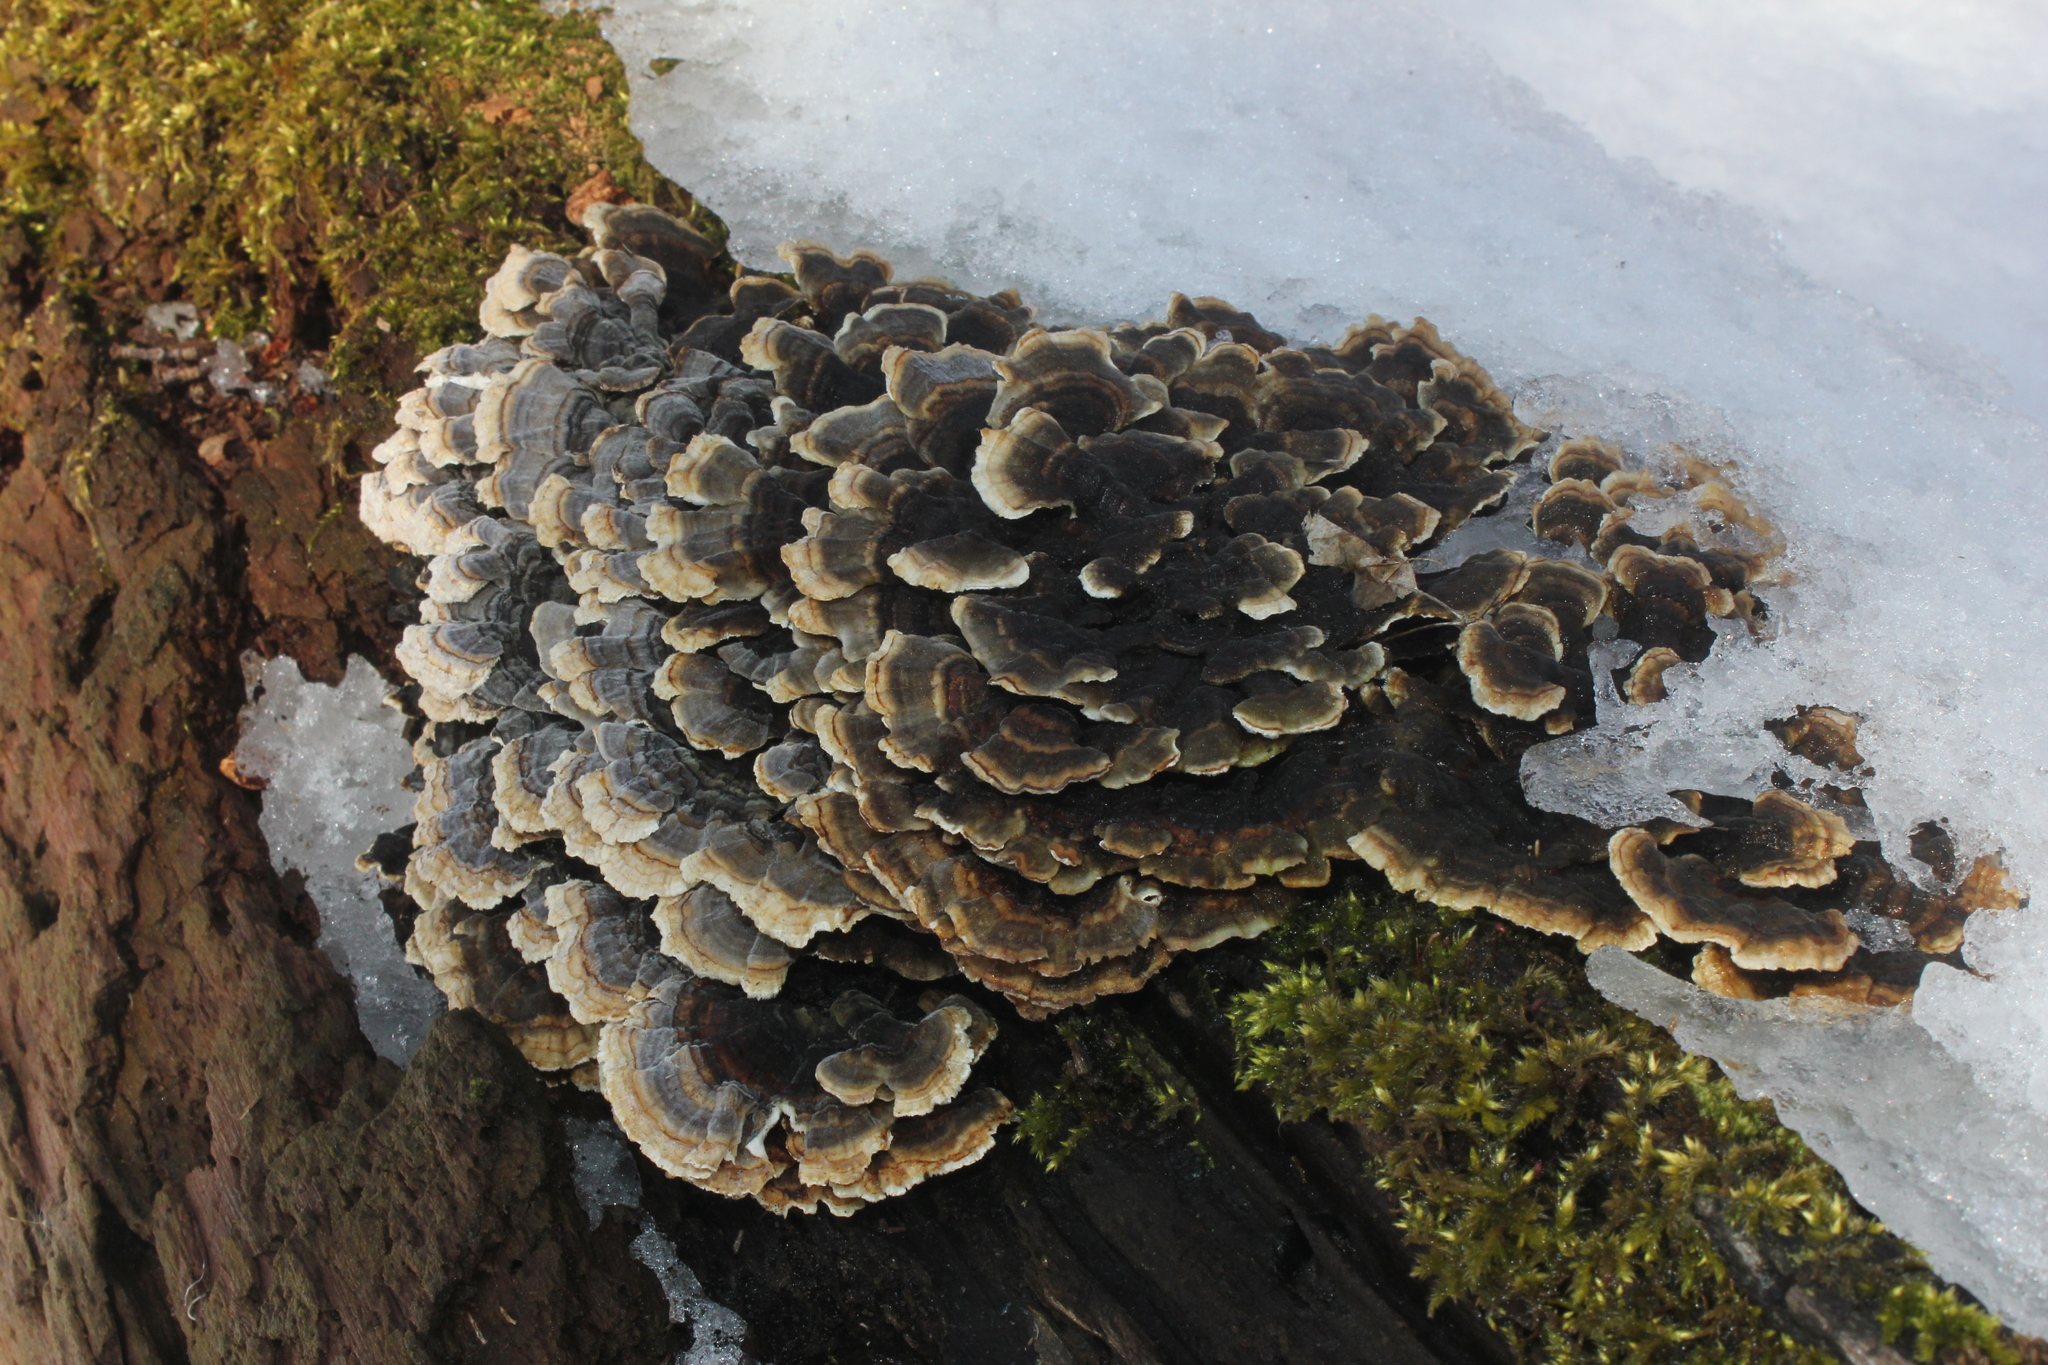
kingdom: Fungi
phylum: Basidiomycota
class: Agaricomycetes
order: Polyporales
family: Polyporaceae
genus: Trametes
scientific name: Trametes versicolor
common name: Turkeytail
